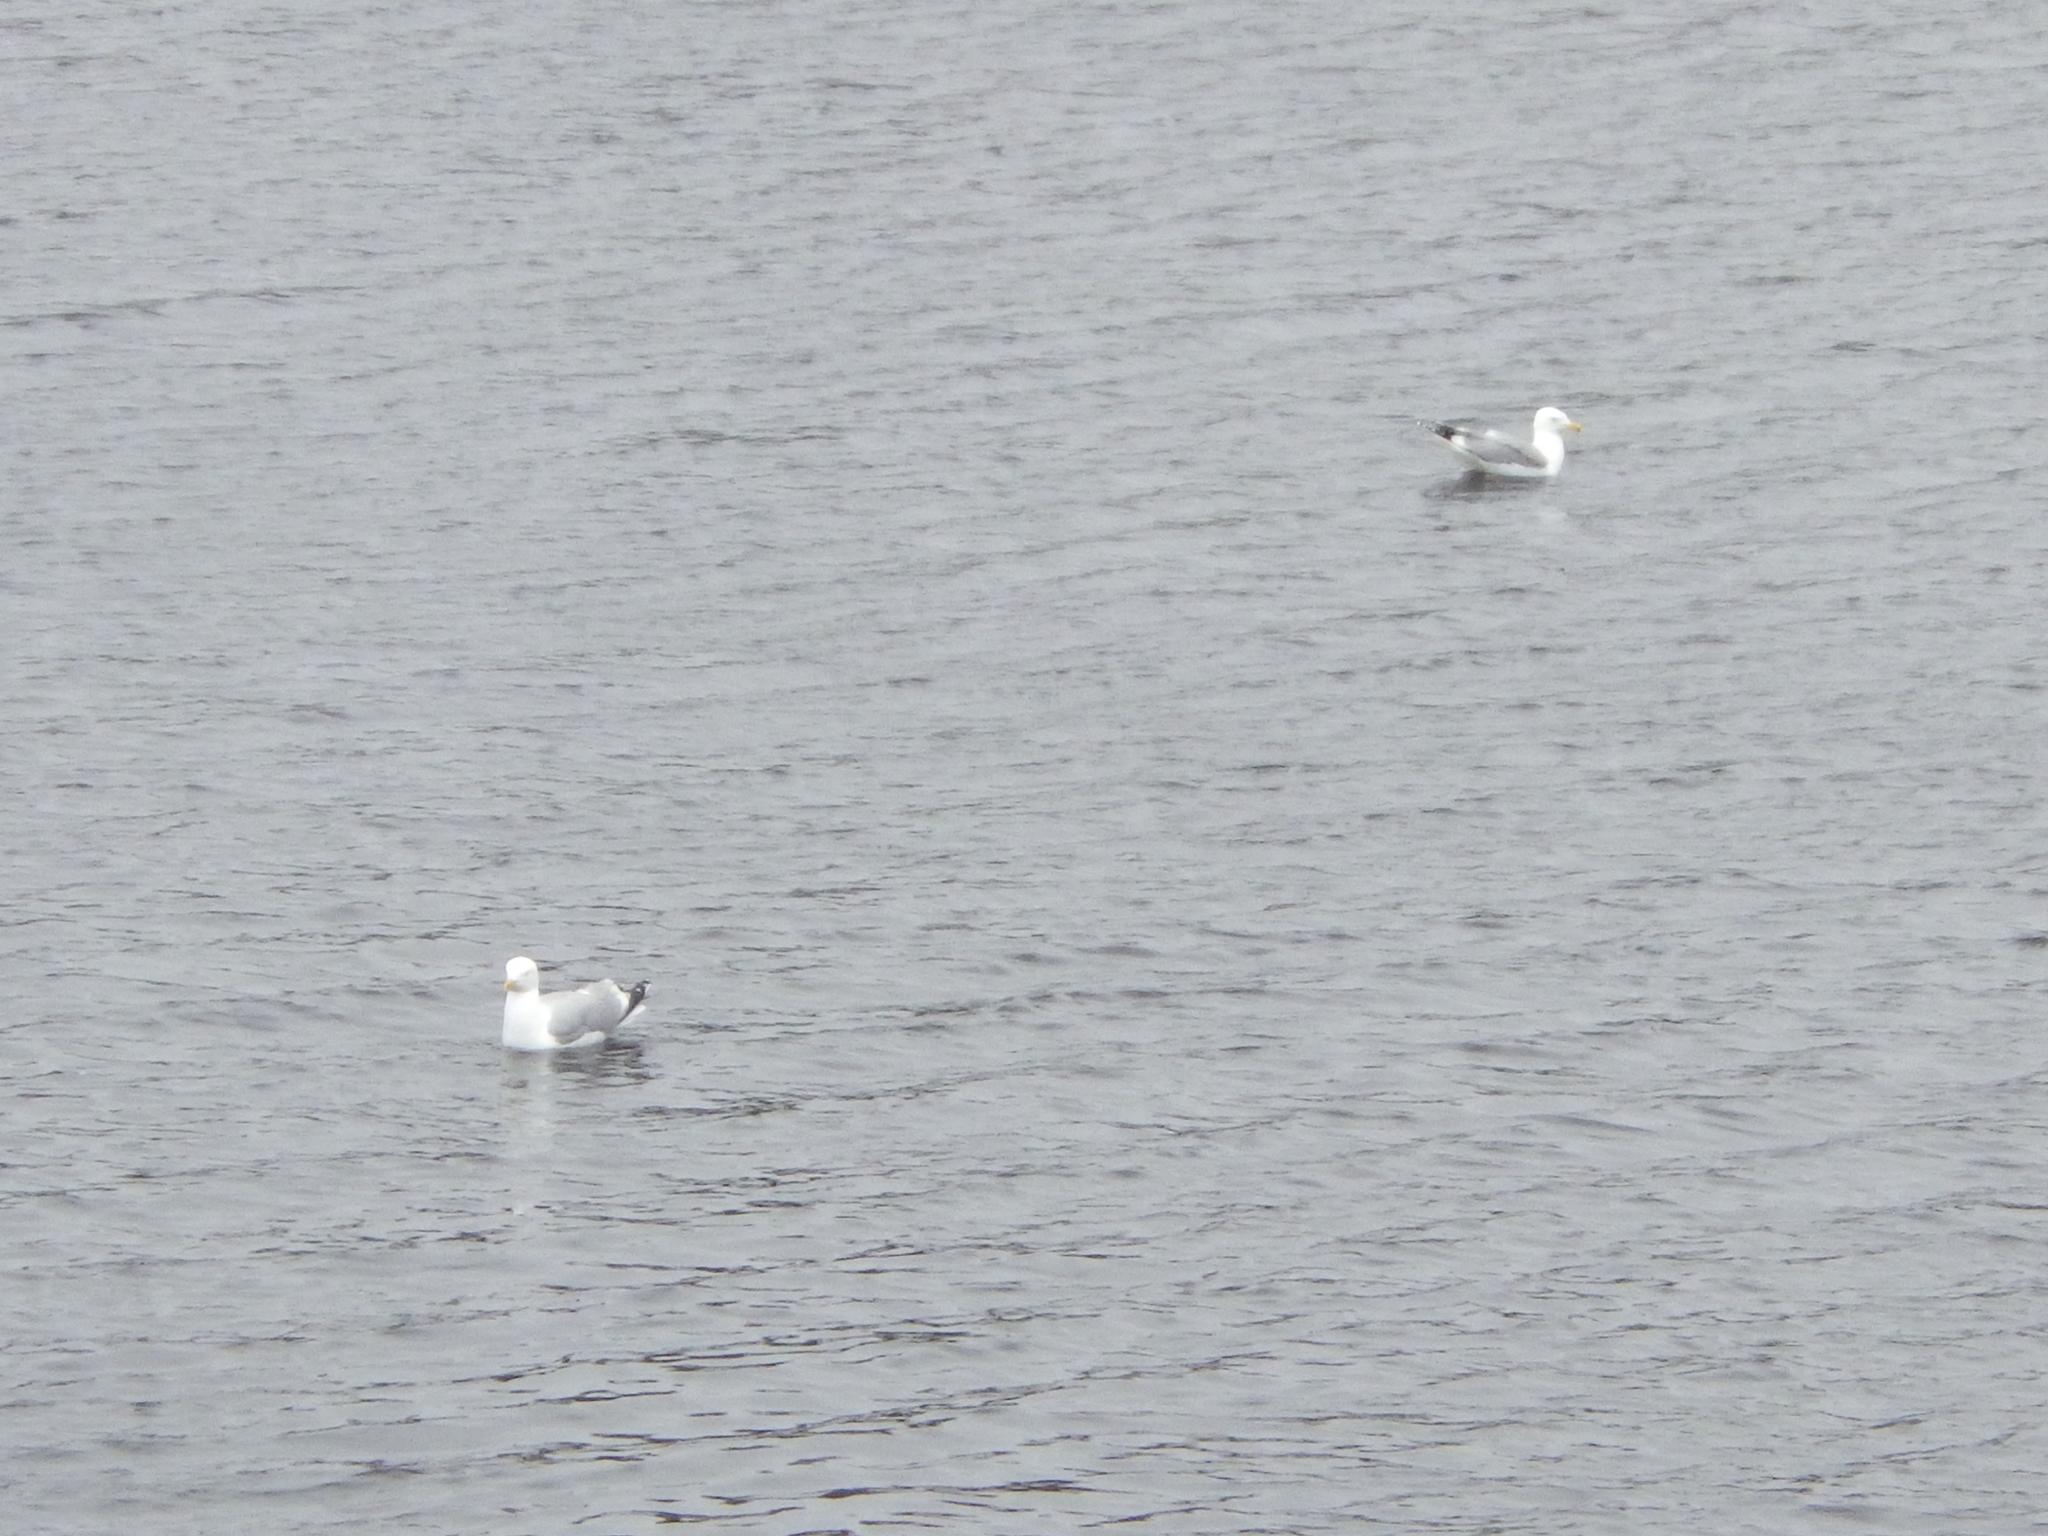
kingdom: Animalia
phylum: Chordata
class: Aves
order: Charadriiformes
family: Laridae
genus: Larus
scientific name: Larus argentatus
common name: Herring gull
